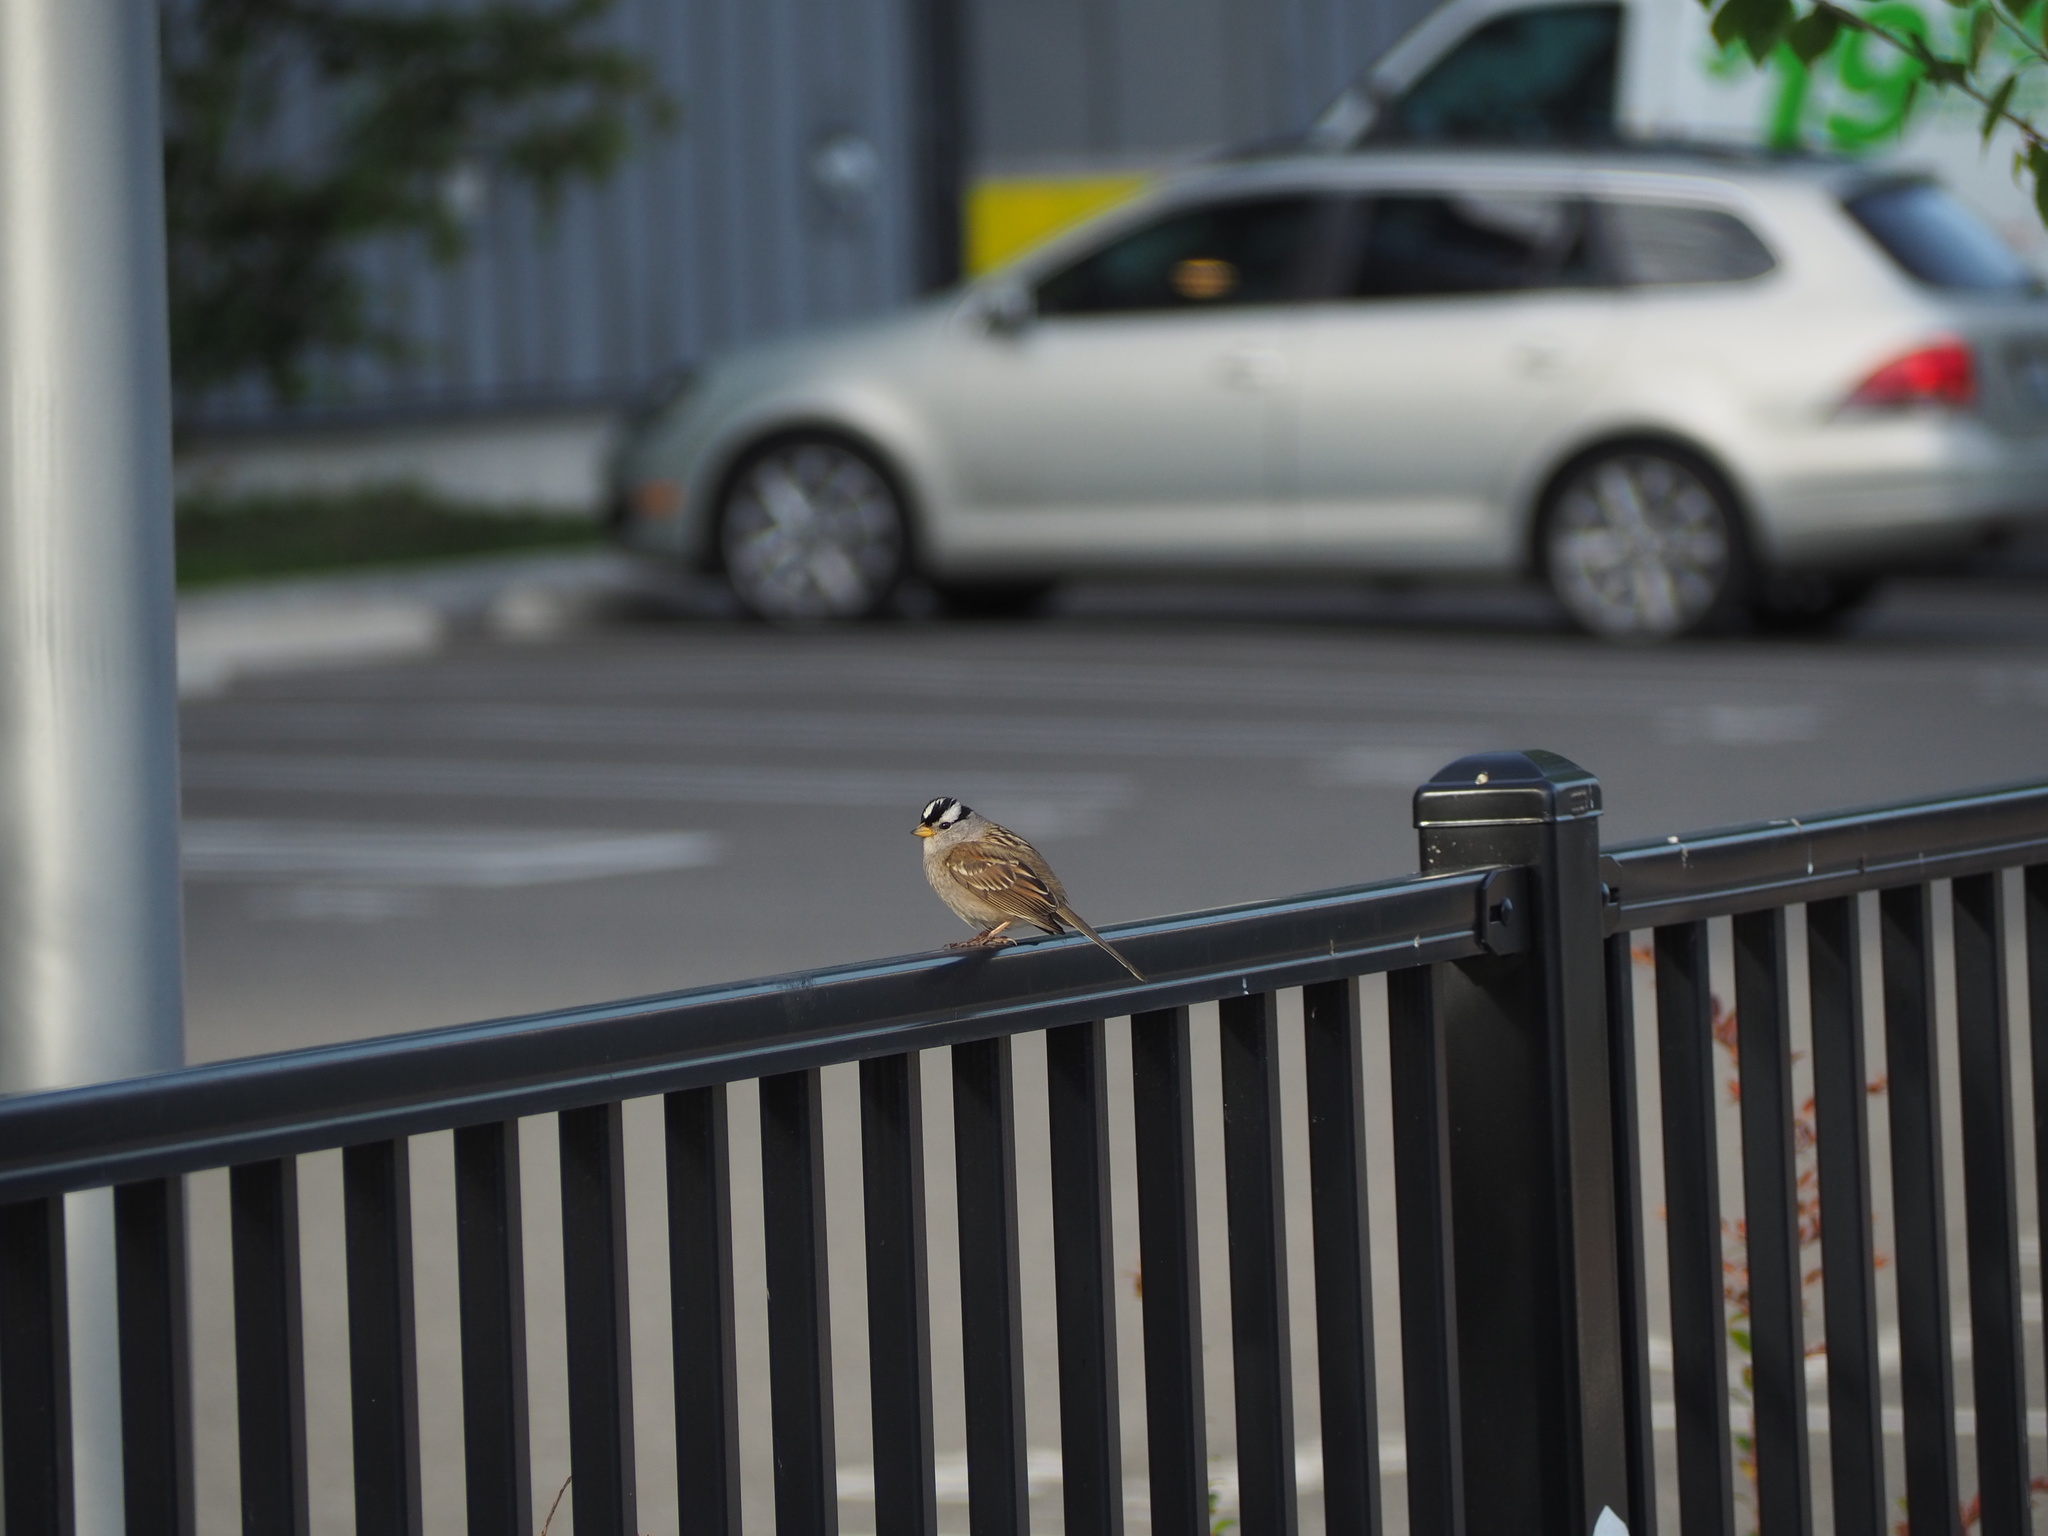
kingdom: Animalia
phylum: Chordata
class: Aves
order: Passeriformes
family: Passerellidae
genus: Zonotrichia
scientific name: Zonotrichia leucophrys
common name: White-crowned sparrow
